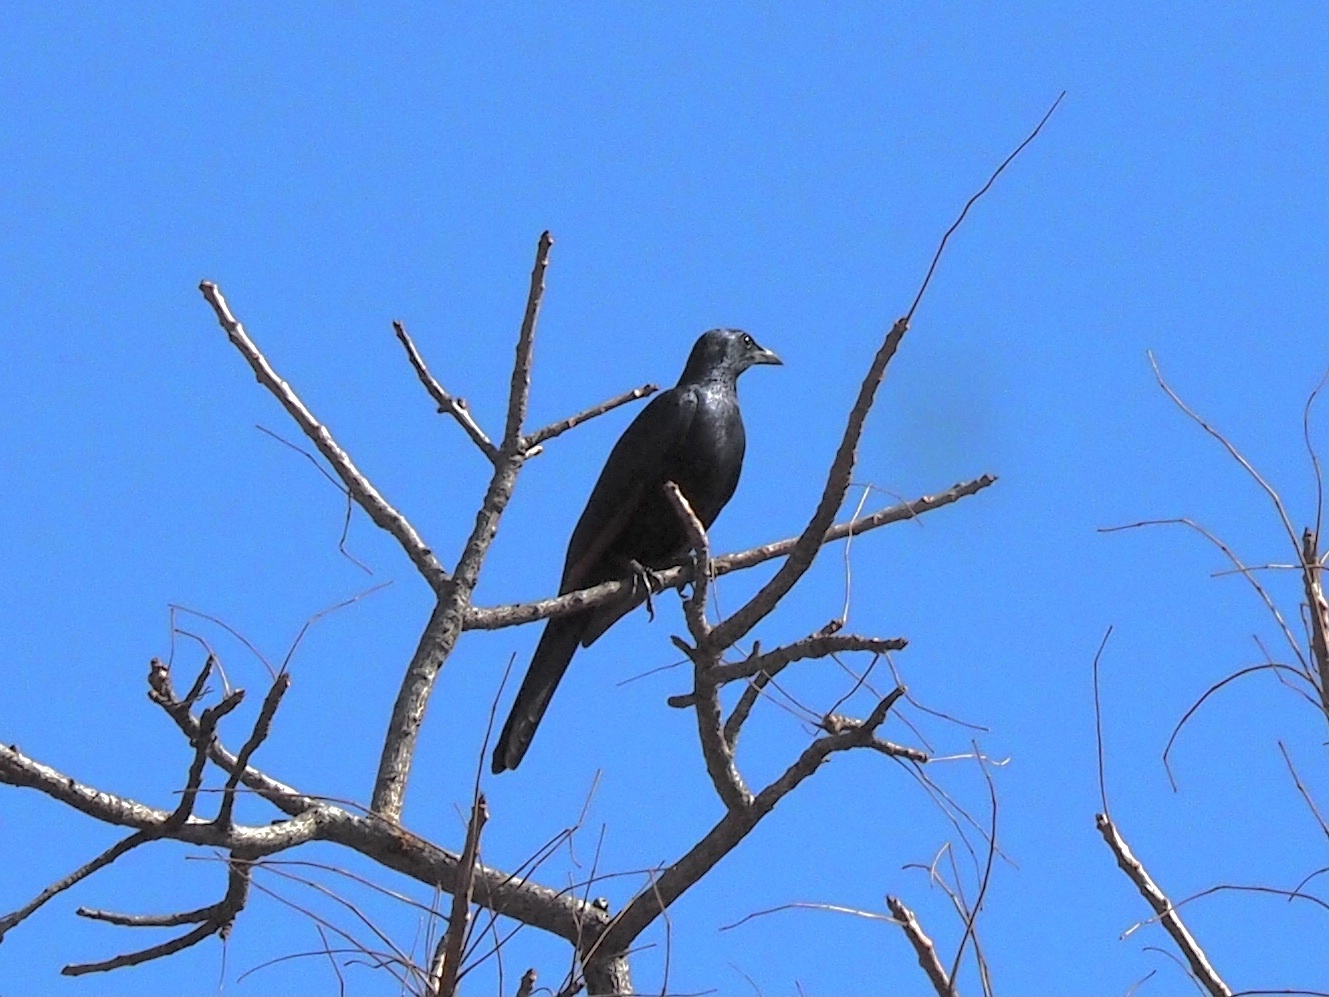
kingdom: Animalia
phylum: Chordata
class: Aves
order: Passeriformes
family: Sturnidae
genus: Onychognathus
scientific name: Onychognathus morio
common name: Red-winged starling
